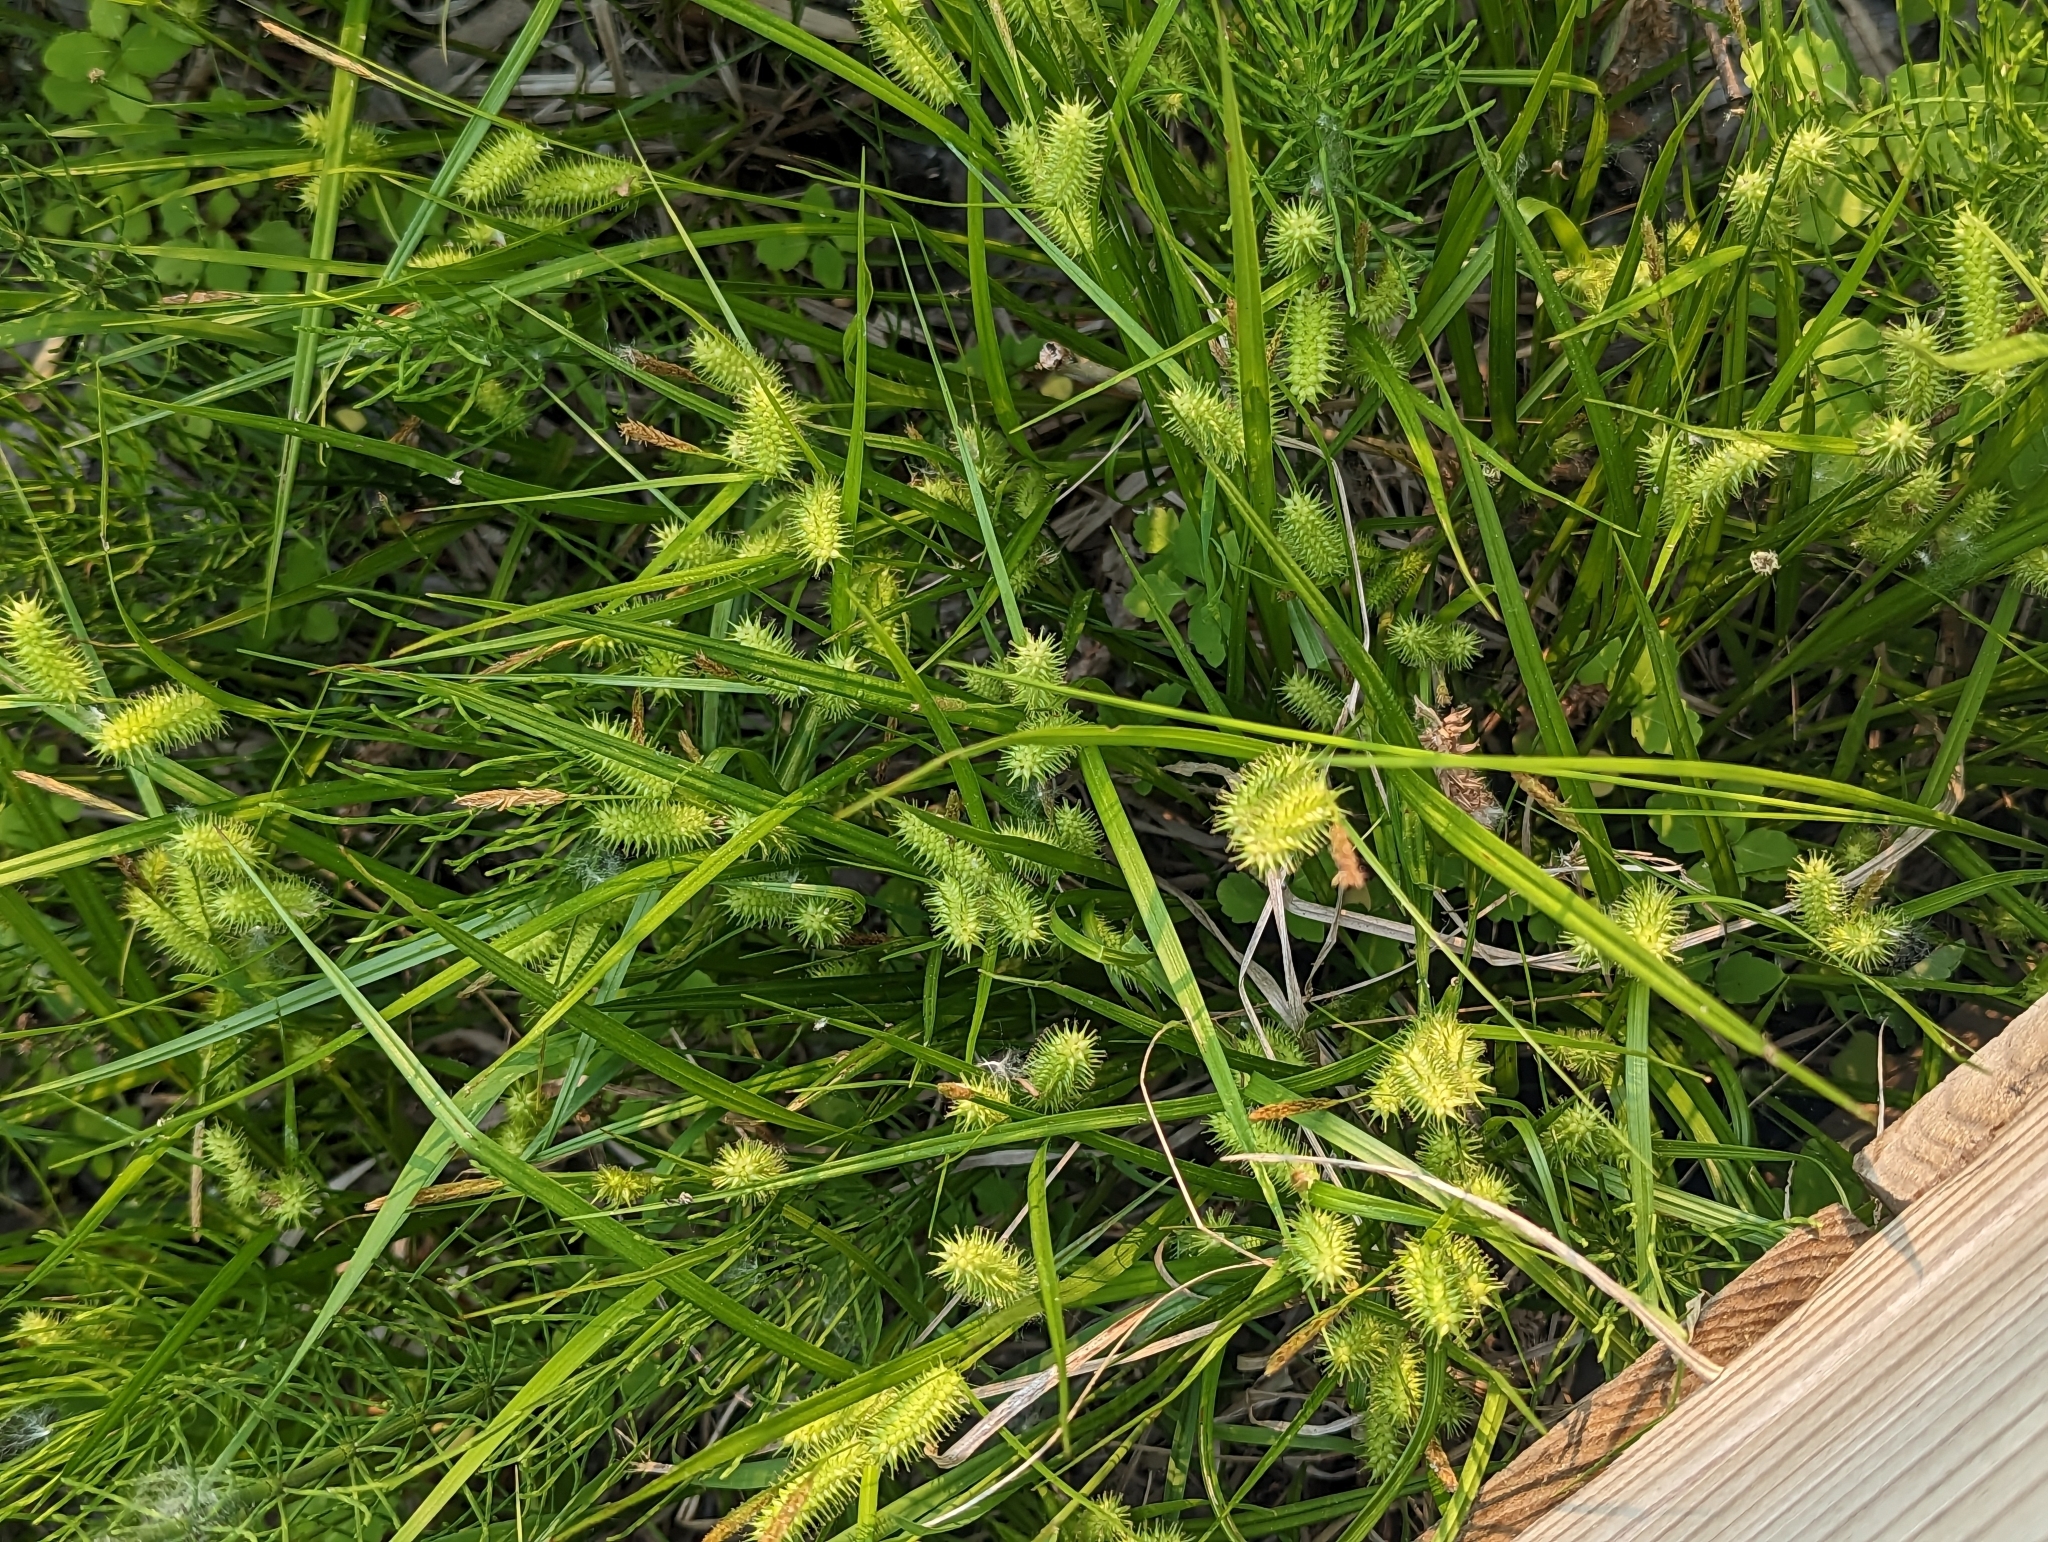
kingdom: Plantae
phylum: Tracheophyta
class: Liliopsida
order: Poales
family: Cyperaceae
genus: Carex
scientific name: Carex hystericina
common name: Bottlebrush sedge
